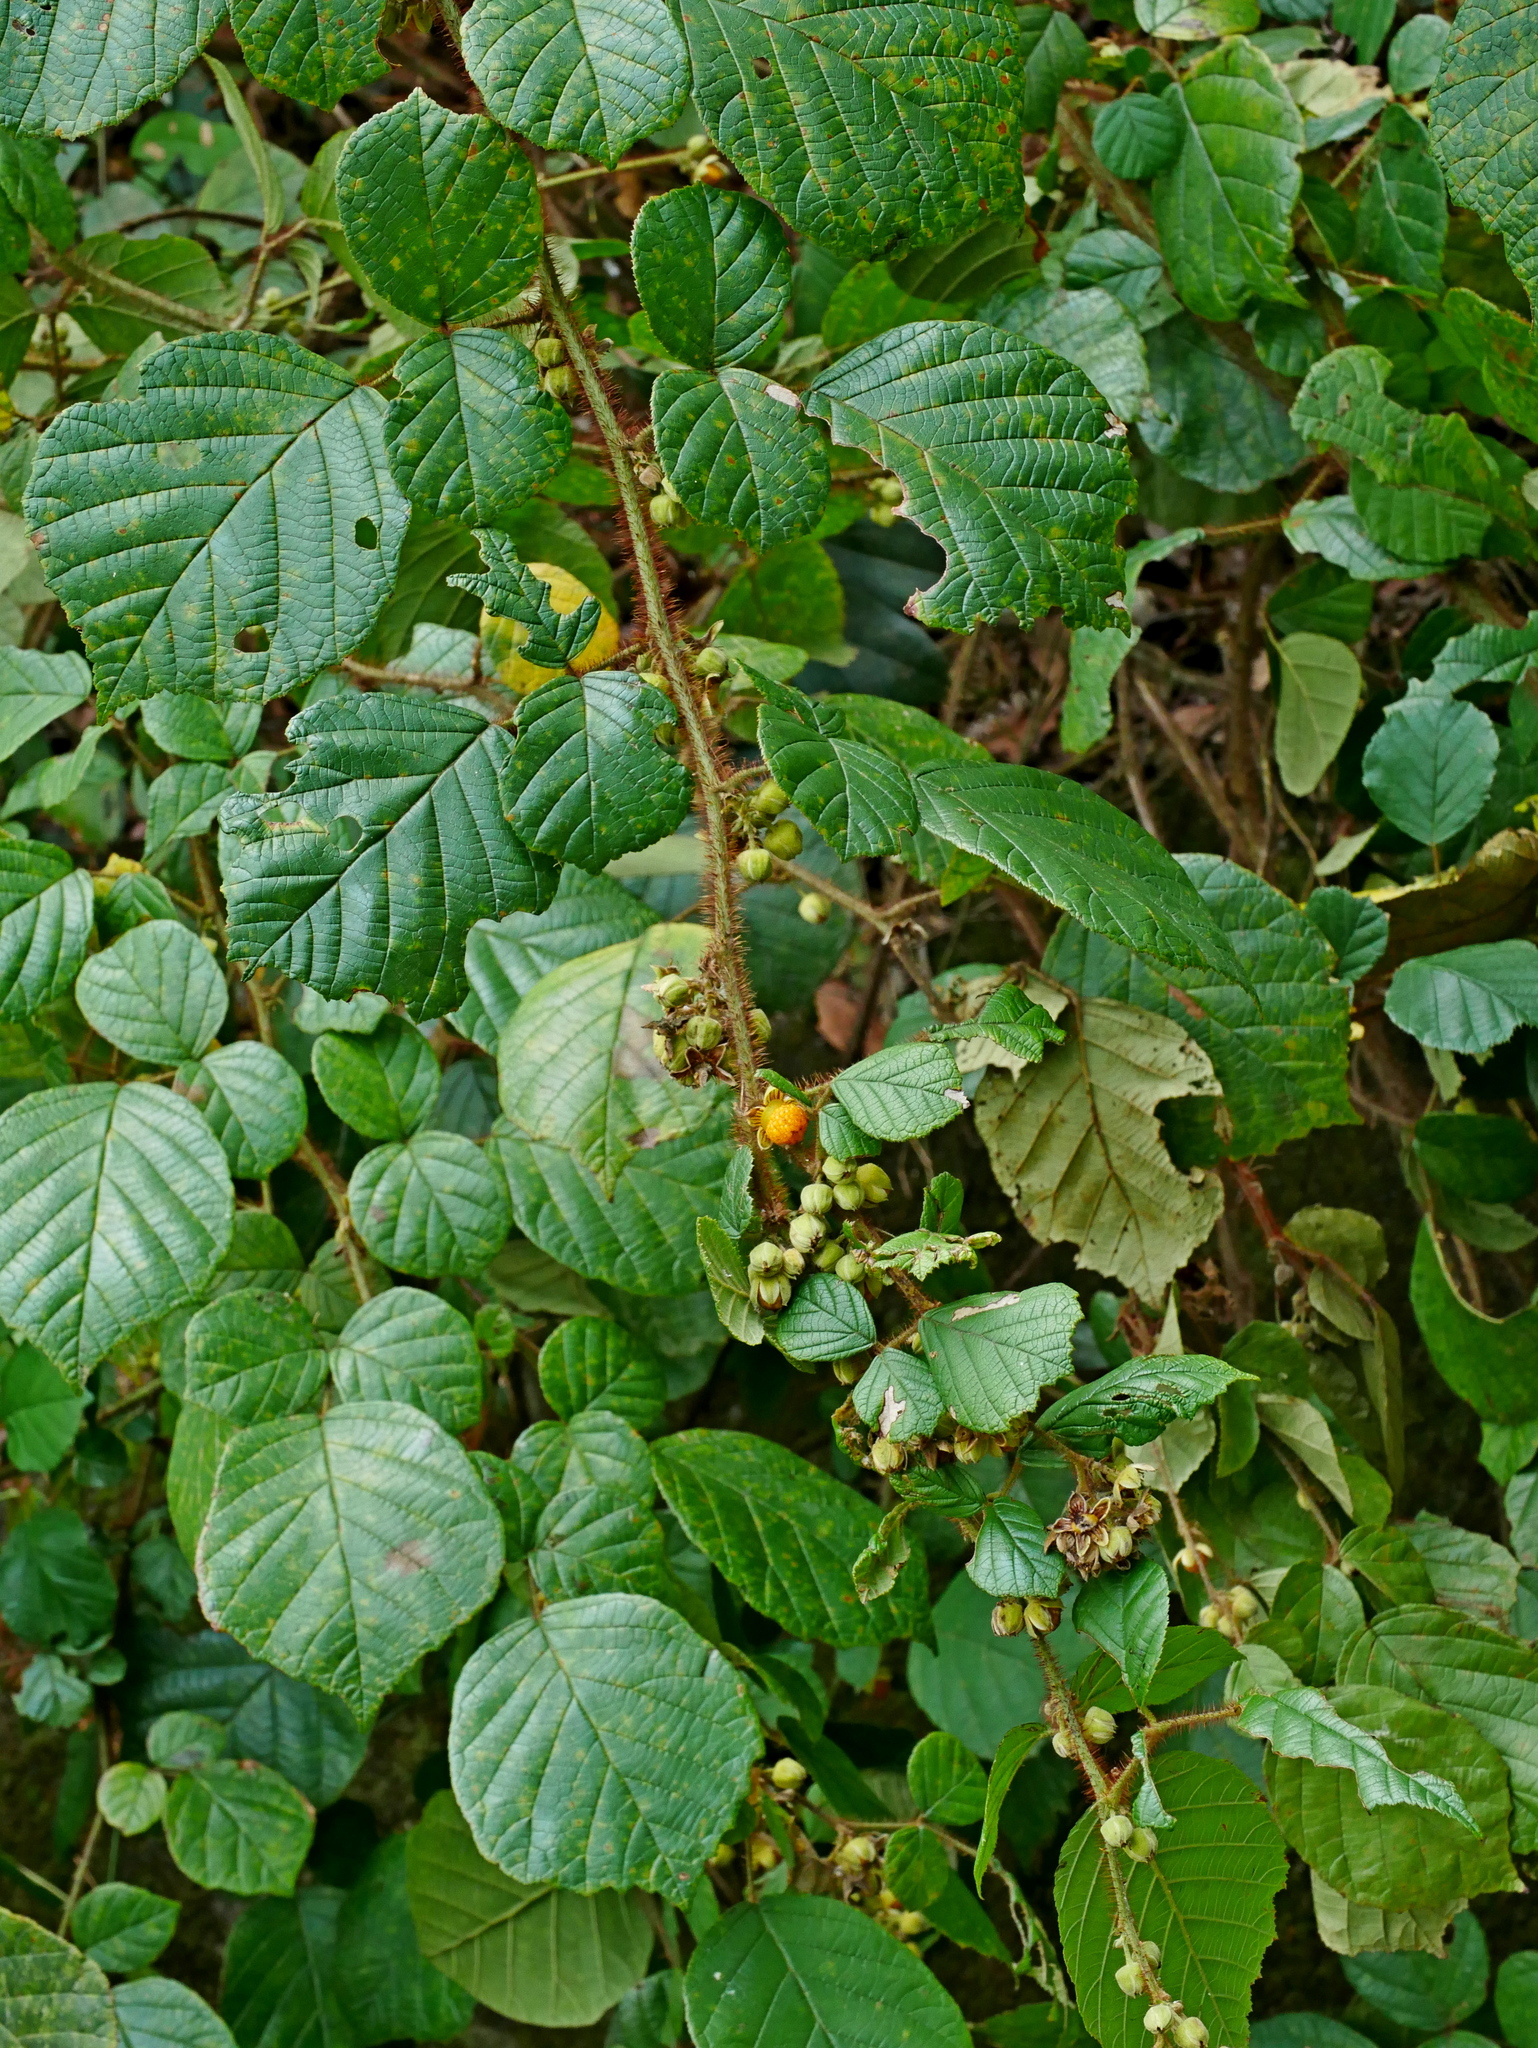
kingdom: Plantae
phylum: Tracheophyta
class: Magnoliopsida
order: Rosales
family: Rosaceae
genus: Rubus
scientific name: Rubus ellipticus
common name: Cheeseberry
